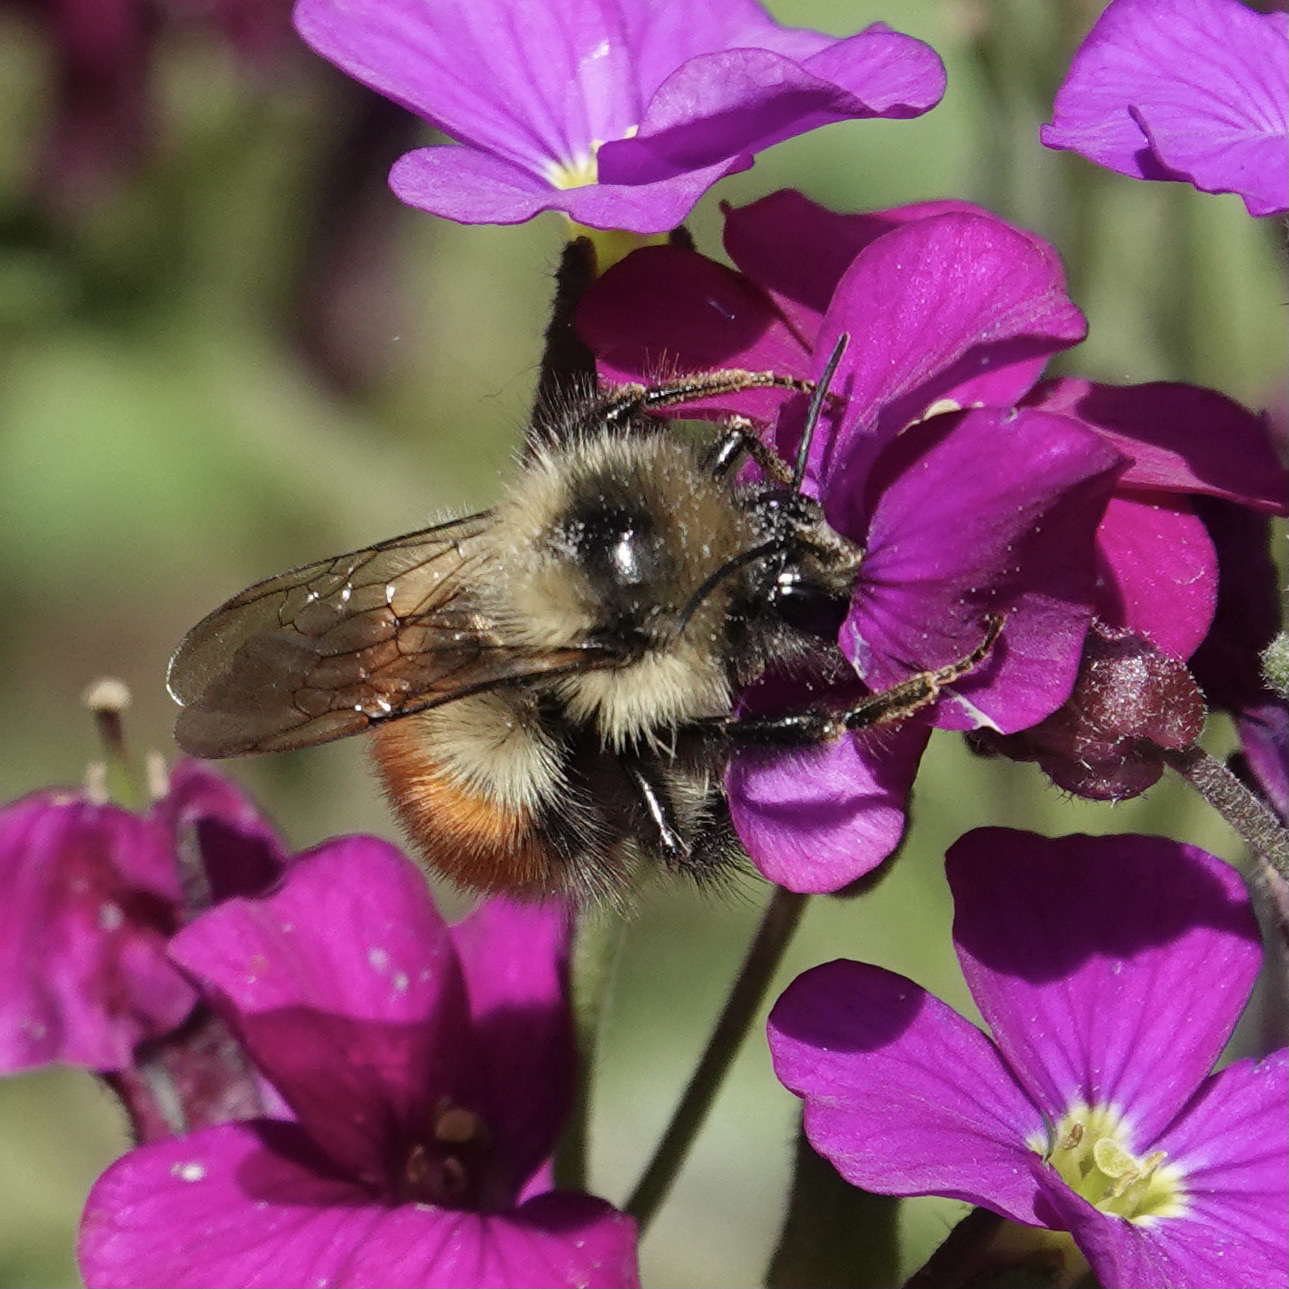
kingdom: Animalia
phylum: Arthropoda
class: Insecta
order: Hymenoptera
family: Apidae
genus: Bombus
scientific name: Bombus melanopygus
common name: Black tail bumble bee
